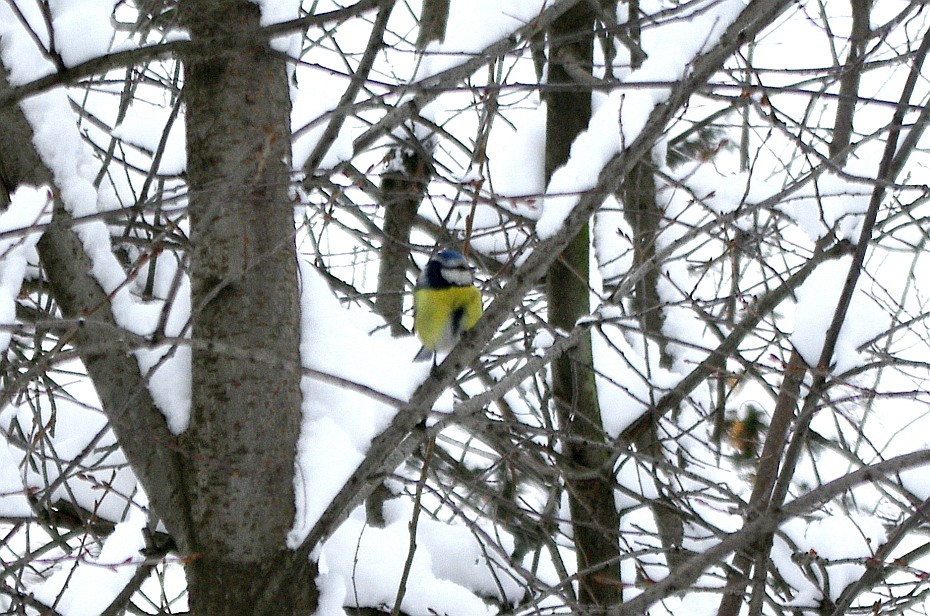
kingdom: Animalia
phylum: Chordata
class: Aves
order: Passeriformes
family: Paridae
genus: Cyanistes
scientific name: Cyanistes caeruleus
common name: Eurasian blue tit
